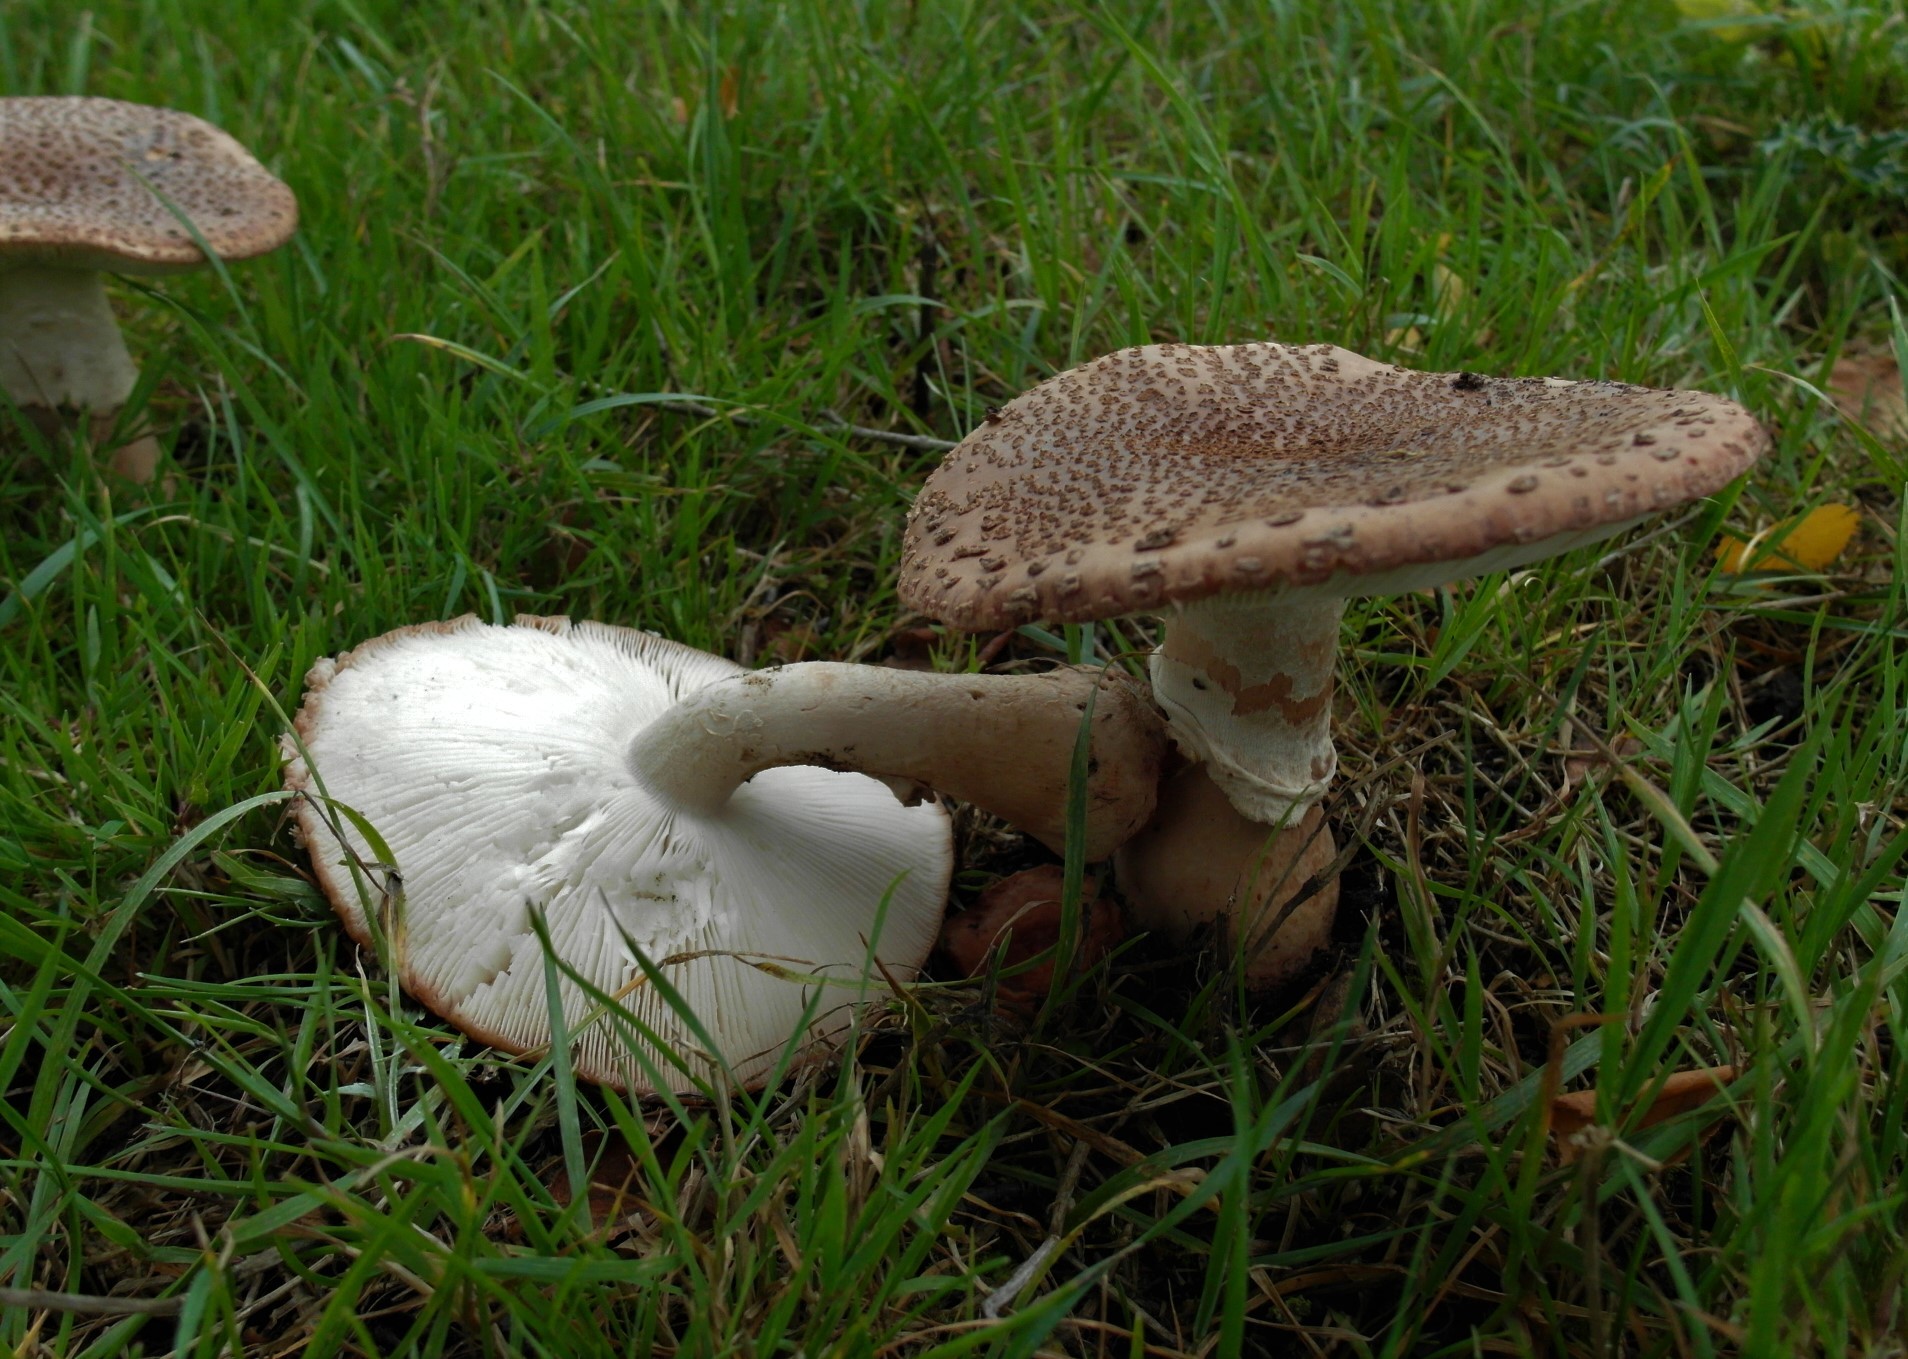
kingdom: Fungi
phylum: Basidiomycota
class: Agaricomycetes
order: Agaricales
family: Amanitaceae
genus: Amanita
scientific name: Amanita rubescens
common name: Blusher
